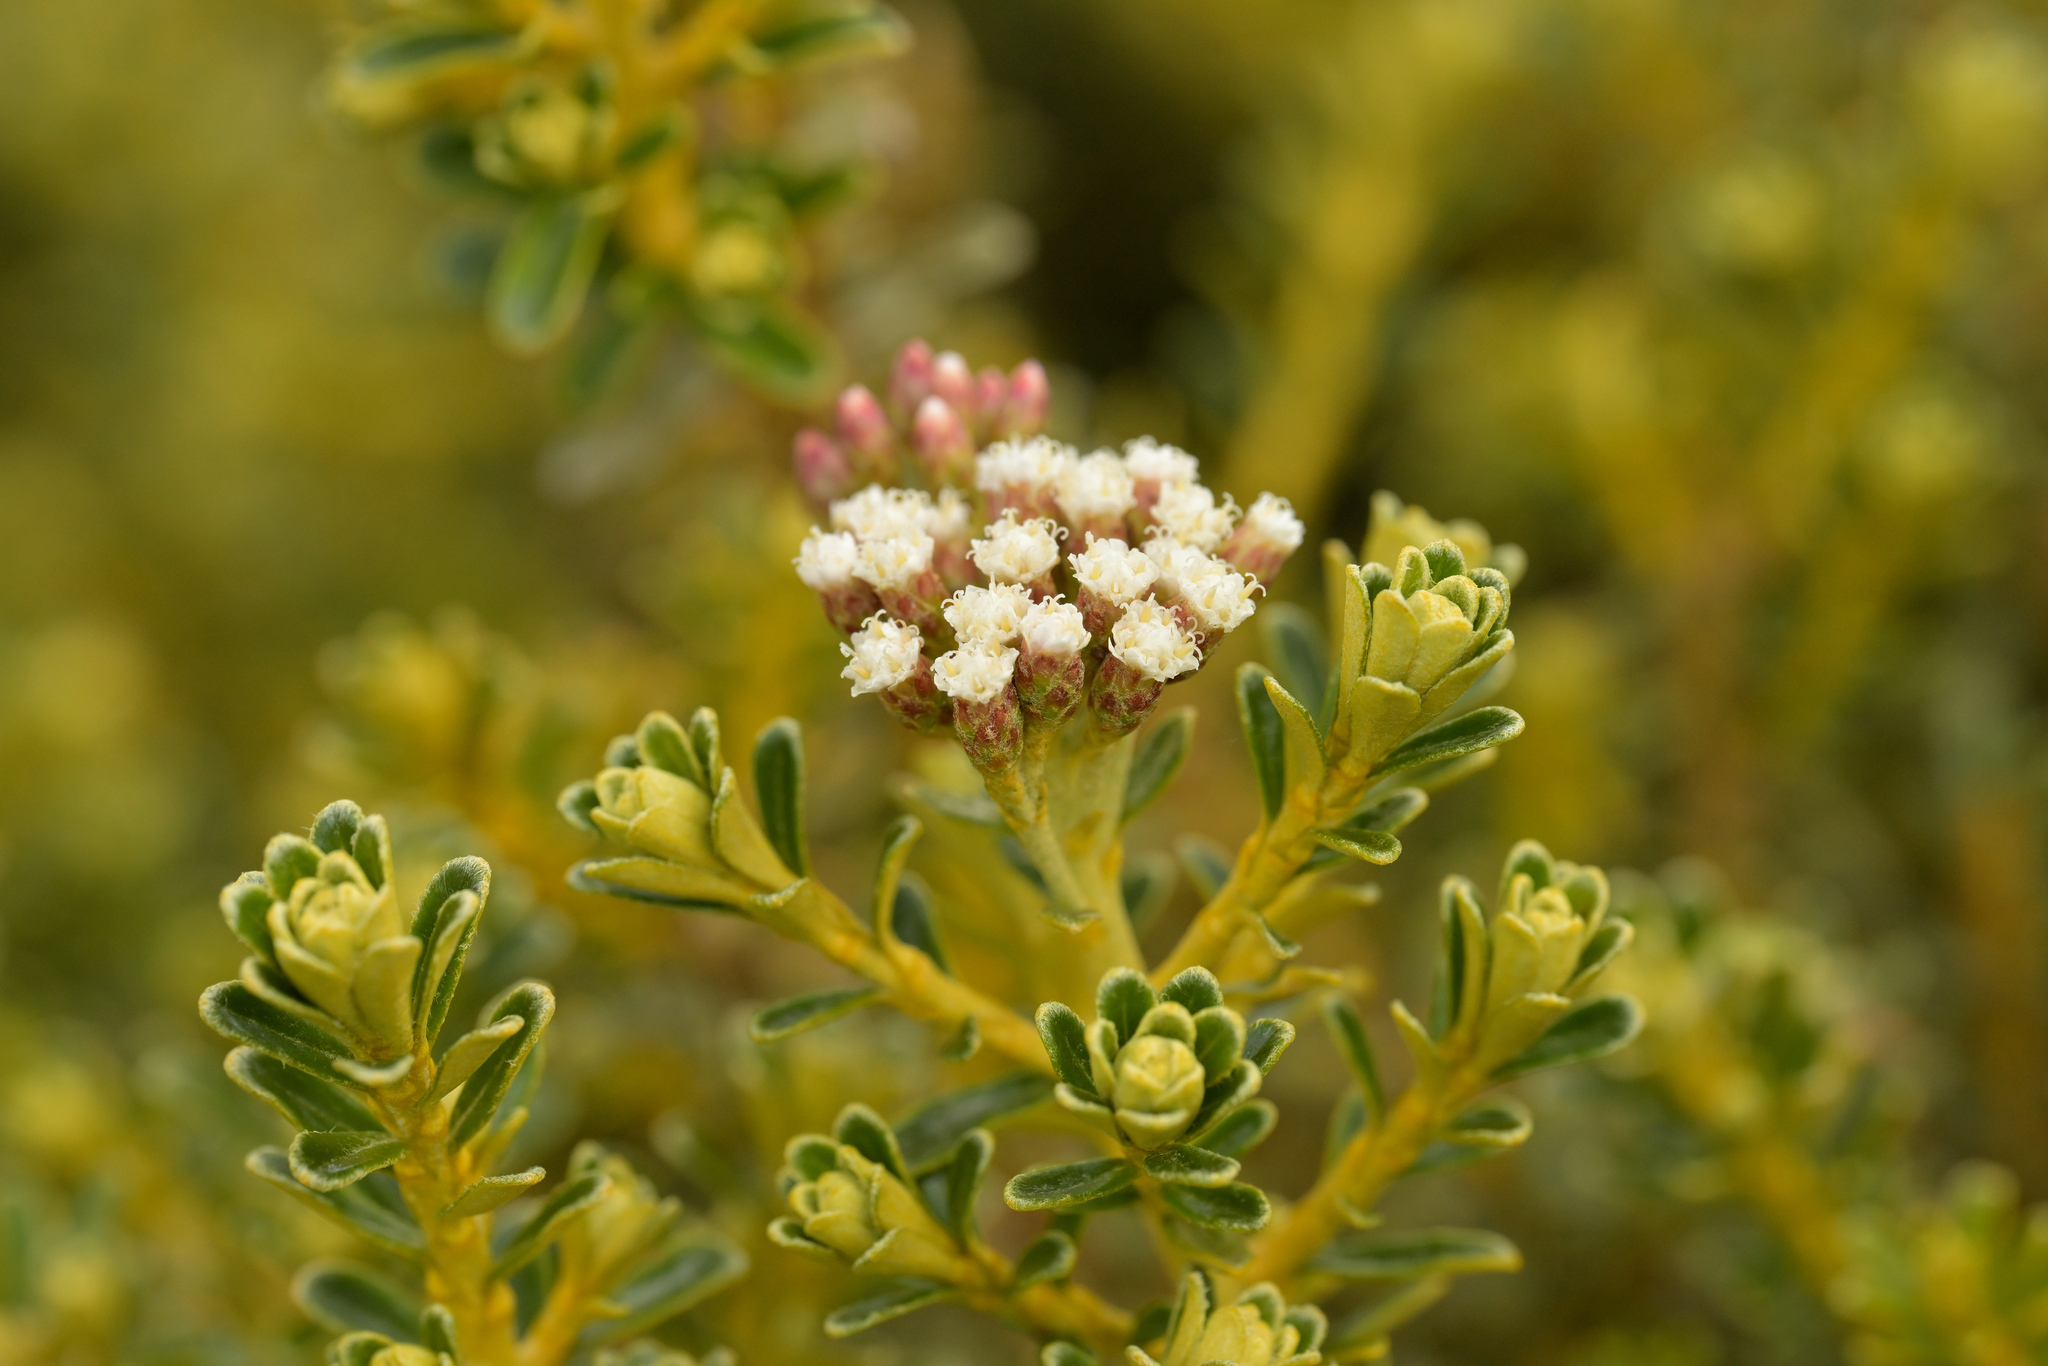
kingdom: Plantae
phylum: Tracheophyta
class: Magnoliopsida
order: Asterales
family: Asteraceae
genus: Ozothamnus
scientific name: Ozothamnus leptophyllus
